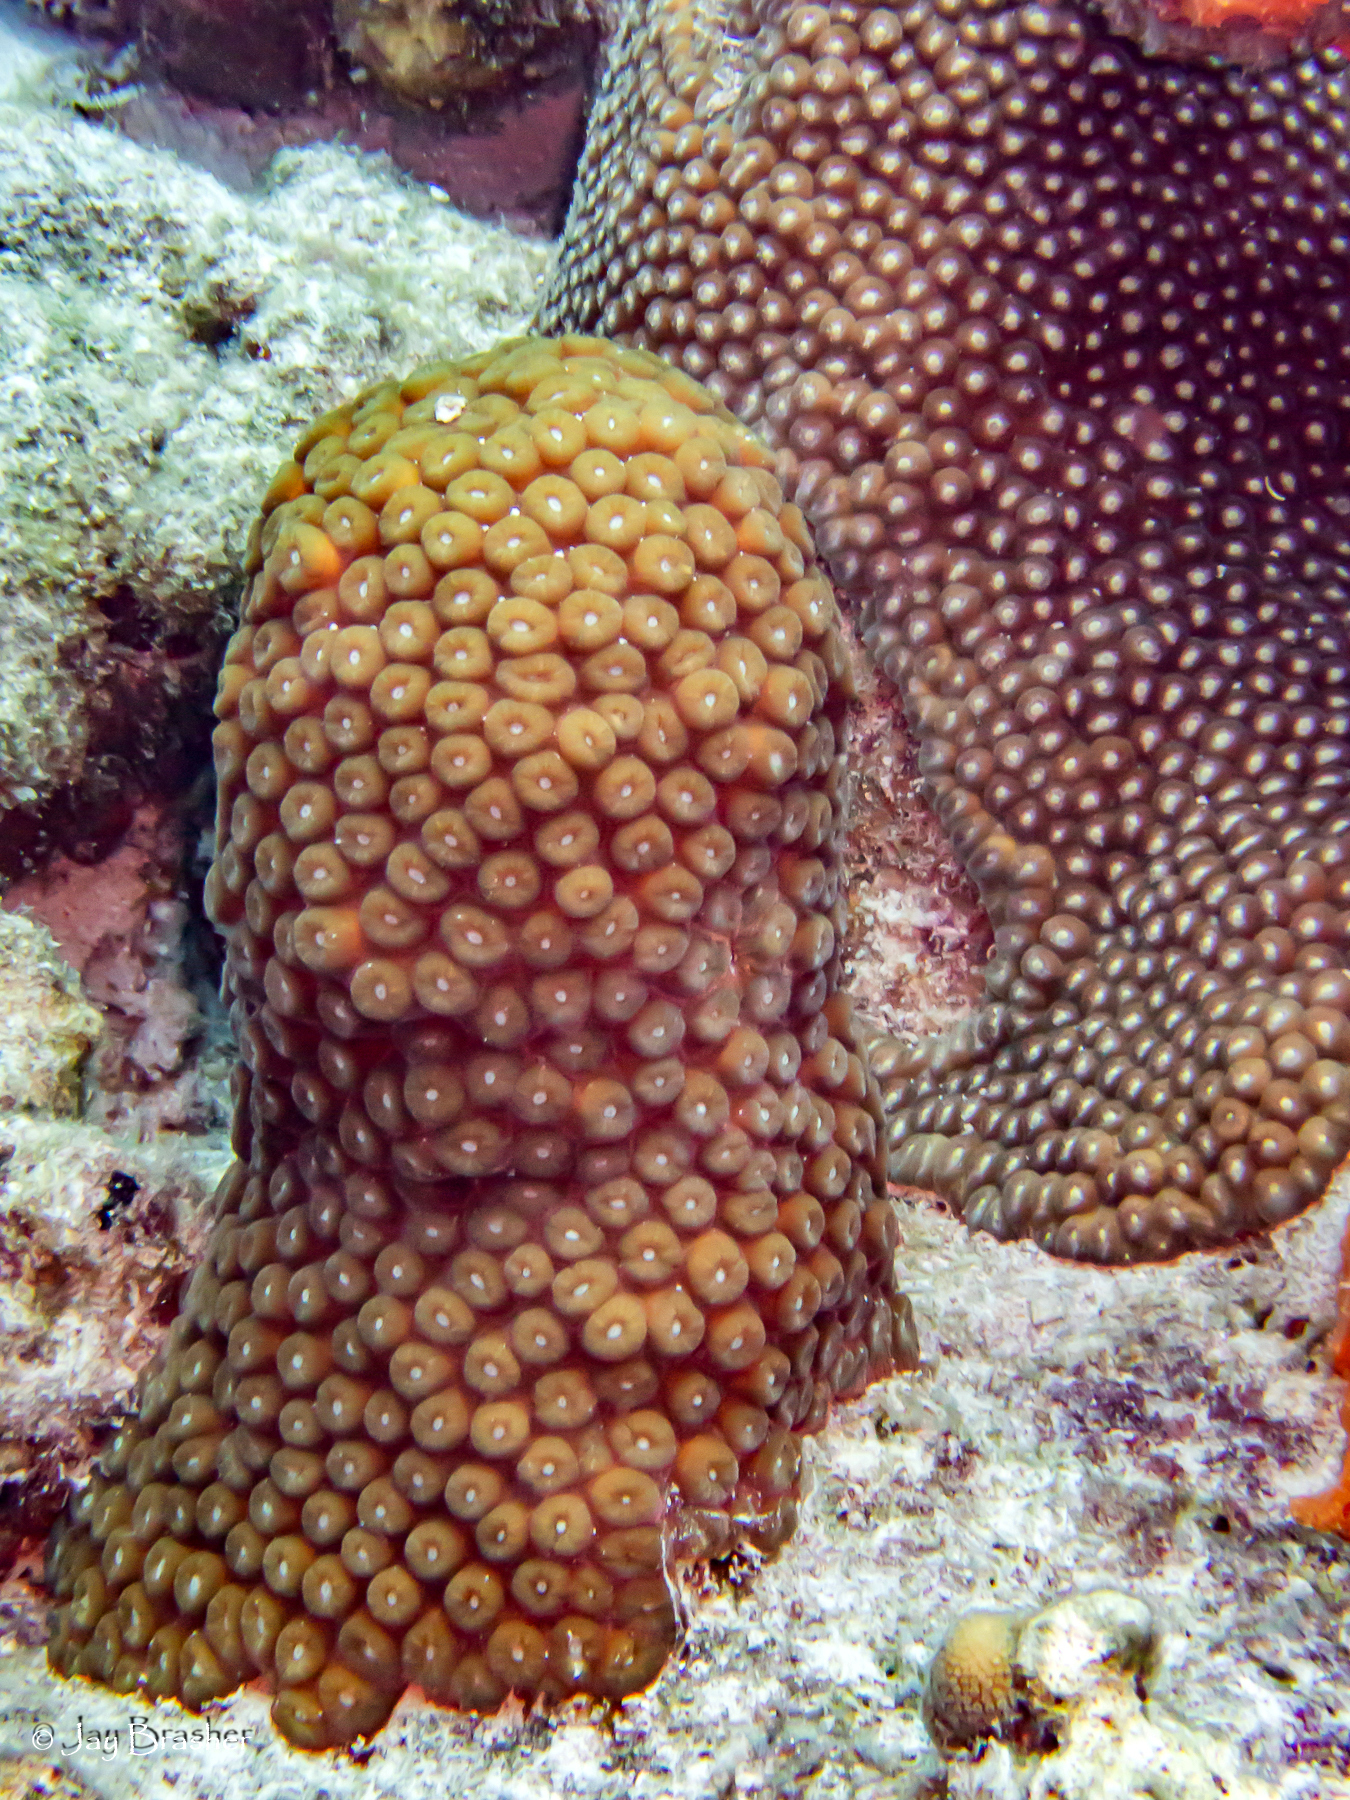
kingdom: Animalia
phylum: Cnidaria
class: Anthozoa
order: Scleractinia
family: Montastraeidae
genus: Montastraea
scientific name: Montastraea cavernosa
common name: Great star coral
